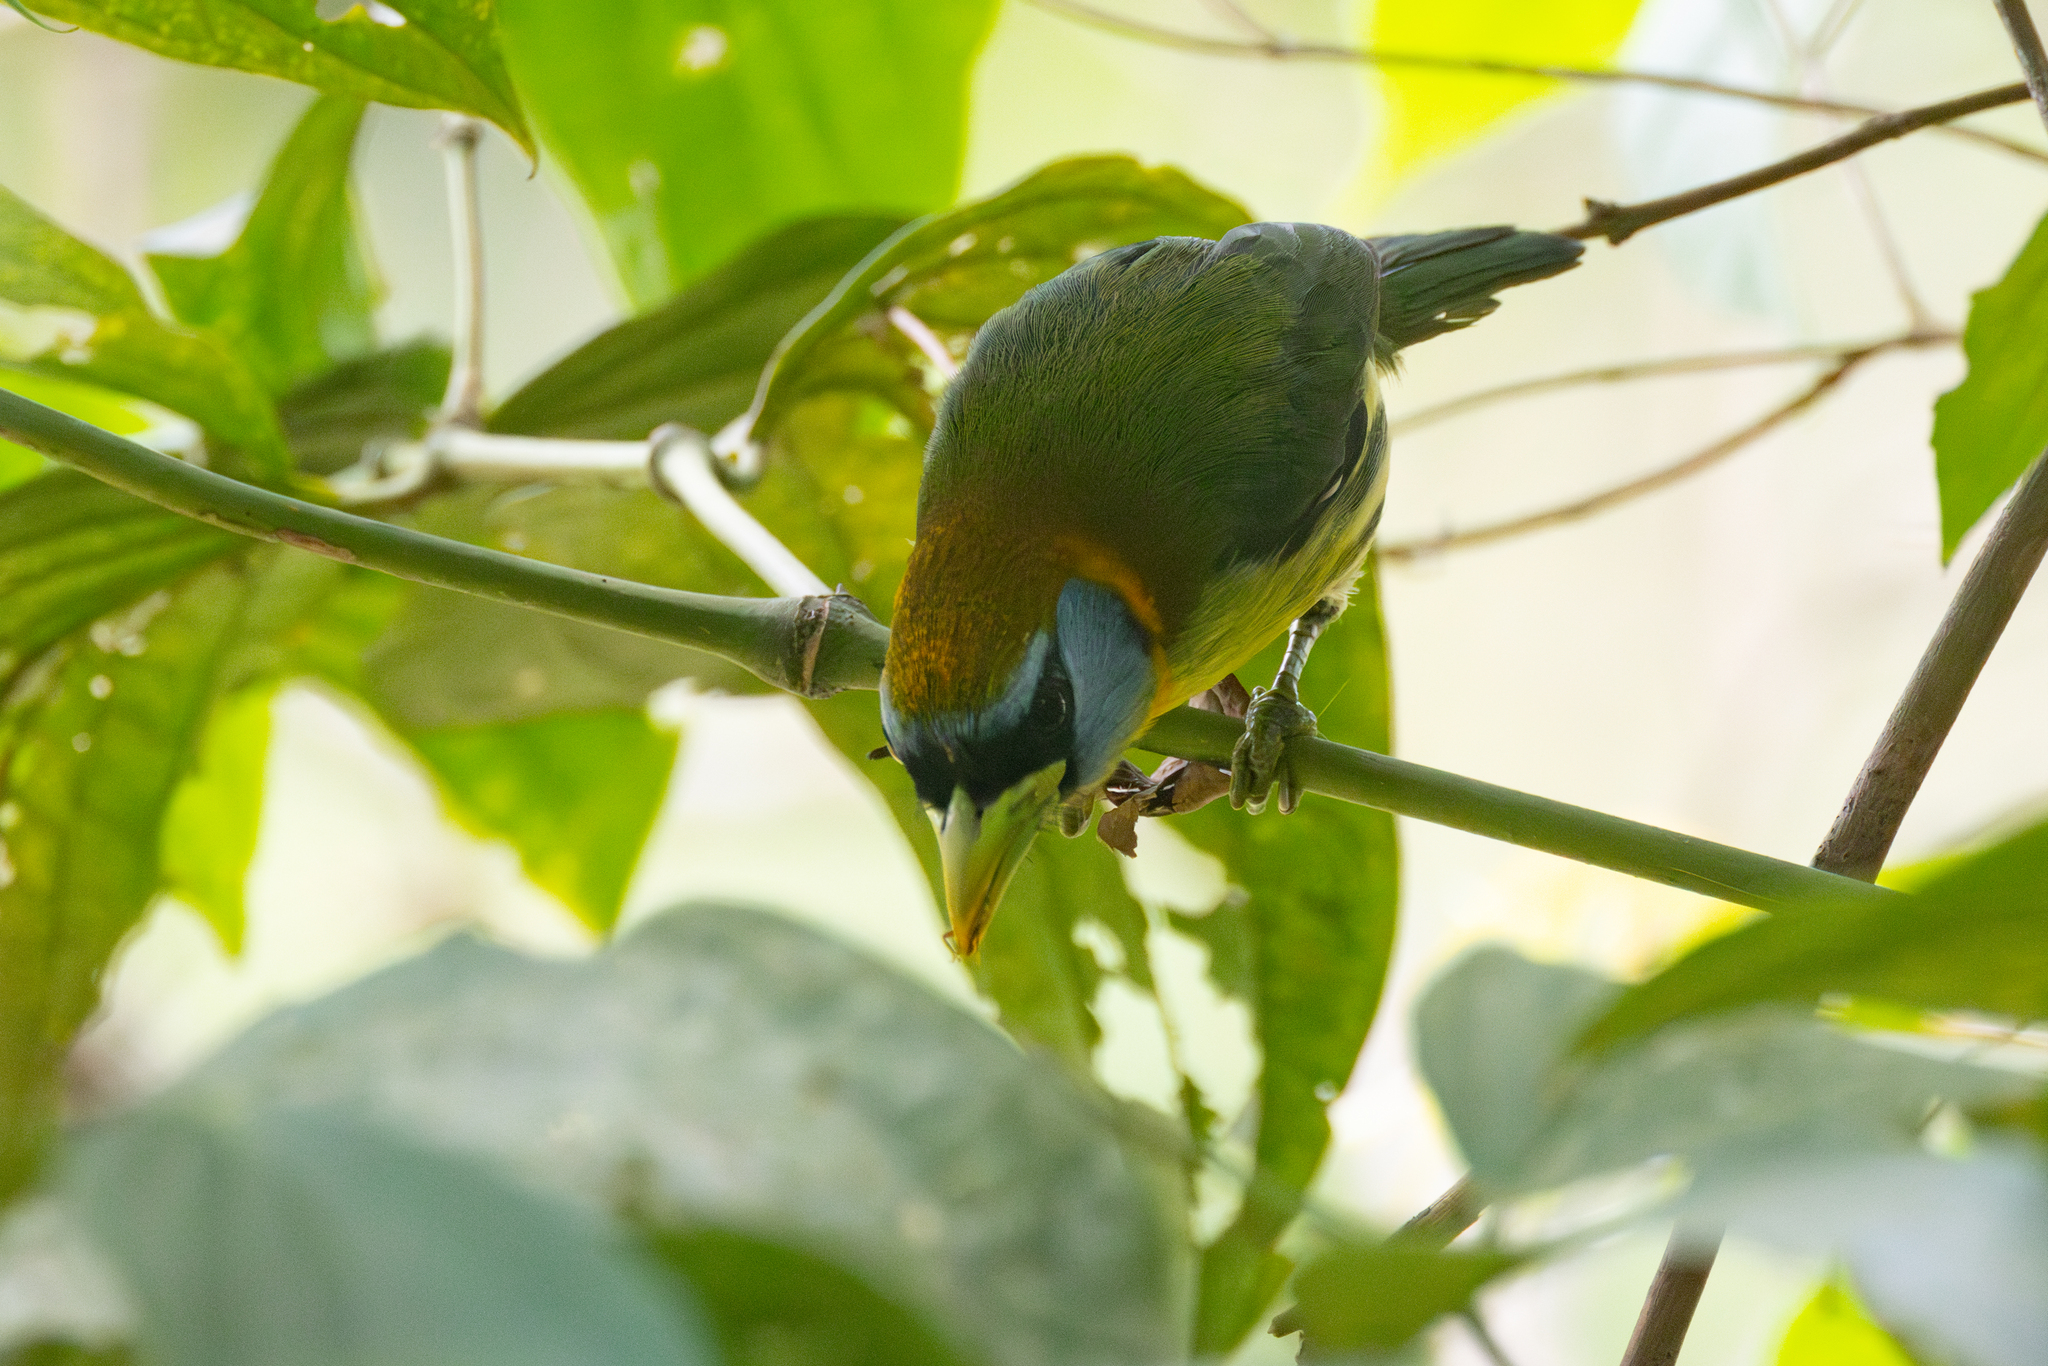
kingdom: Animalia
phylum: Chordata
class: Aves
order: Piciformes
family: Capitonidae
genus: Eubucco
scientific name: Eubucco bourcierii
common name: Red-headed barbet
